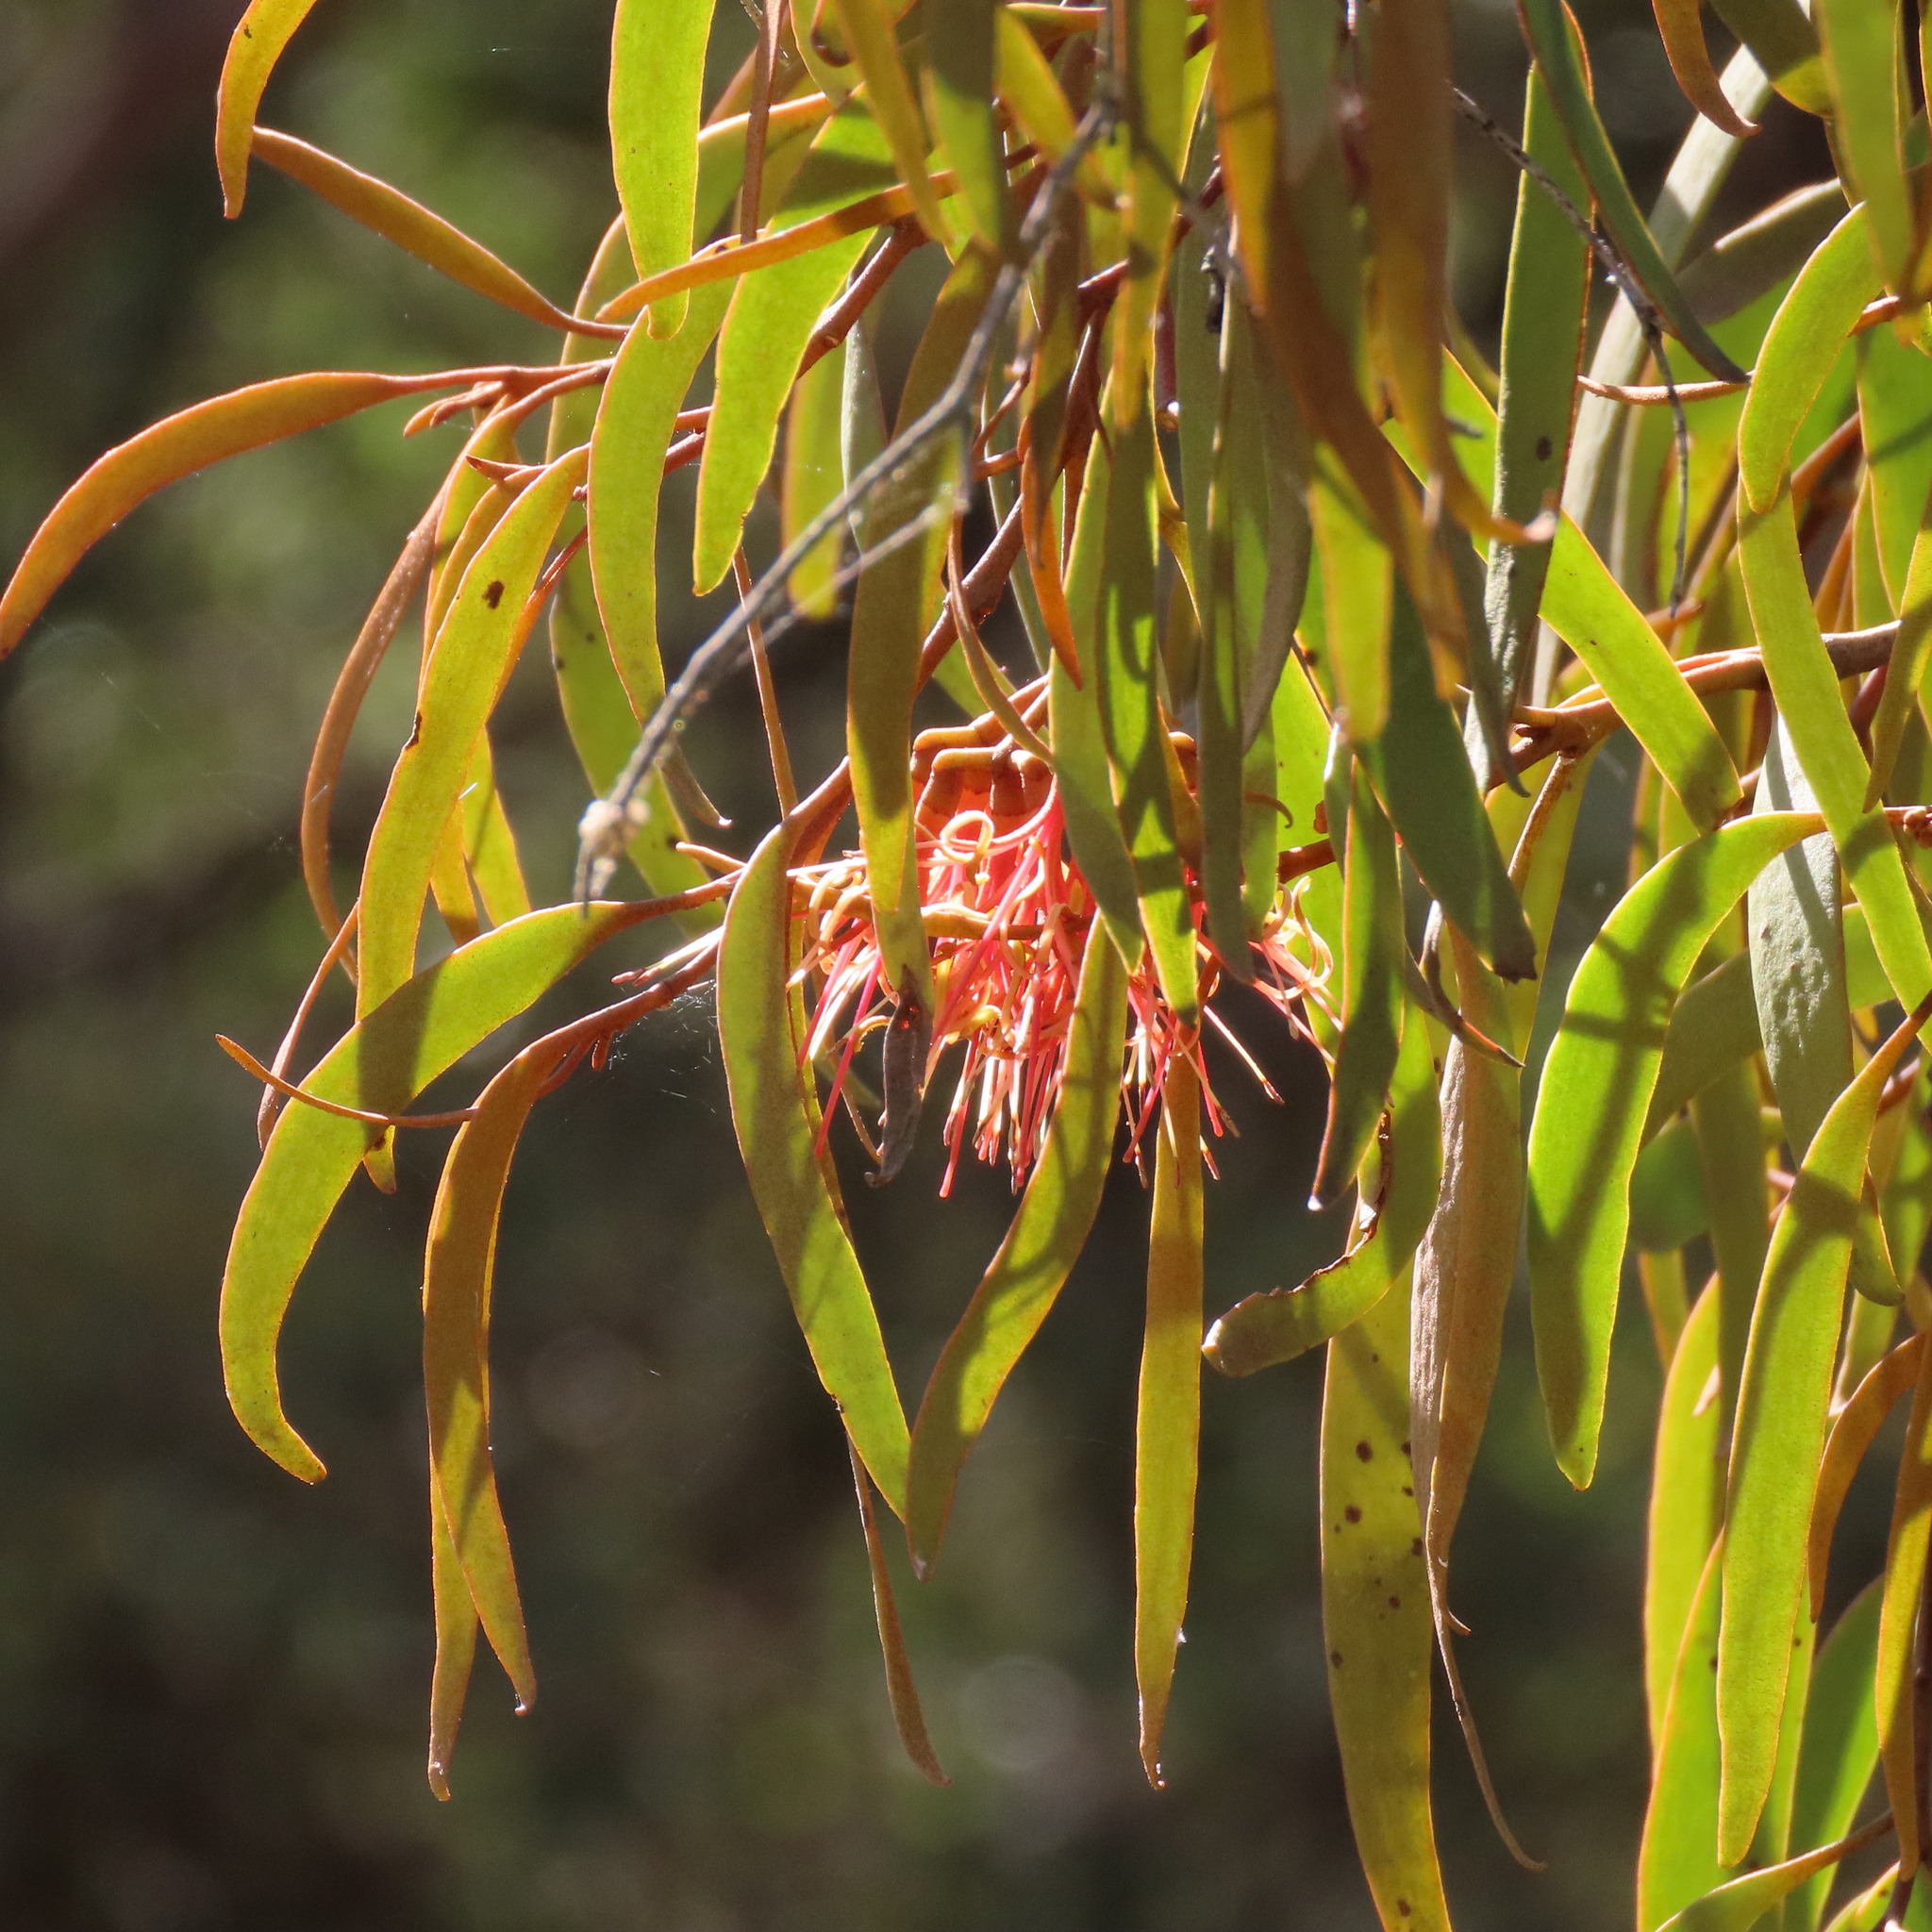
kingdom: Plantae
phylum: Tracheophyta
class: Magnoliopsida
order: Santalales
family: Loranthaceae
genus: Amyema
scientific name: Amyema pendula
